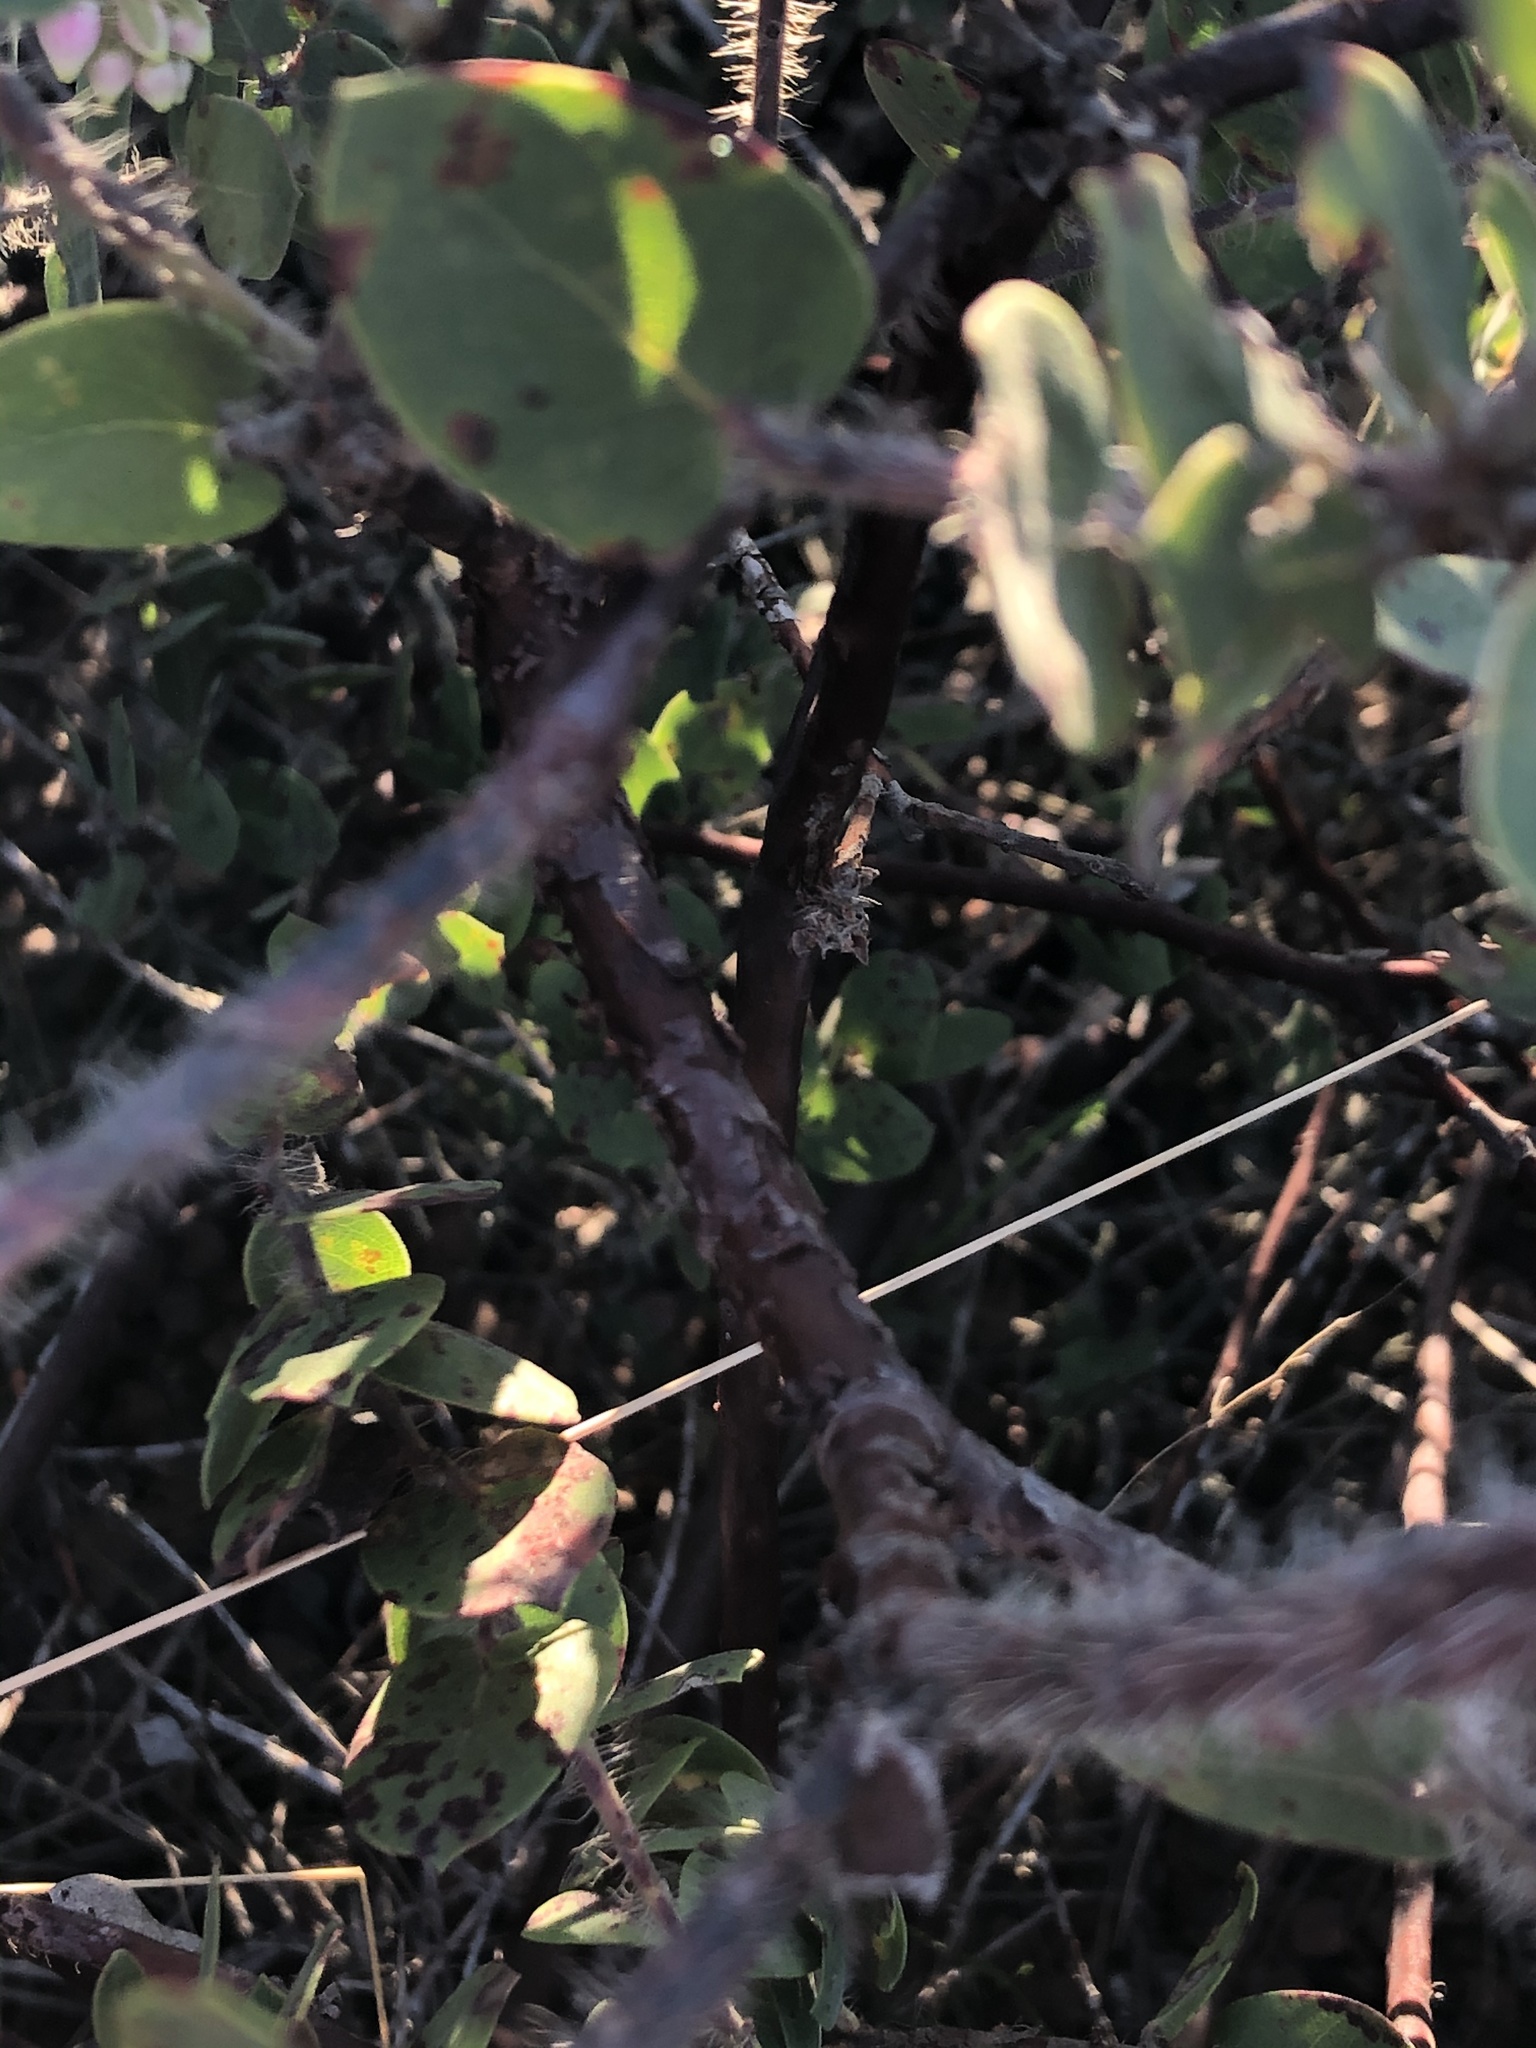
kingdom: Plantae
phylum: Tracheophyta
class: Magnoliopsida
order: Ericales
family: Ericaceae
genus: Arctostaphylos
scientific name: Arctostaphylos purissima
